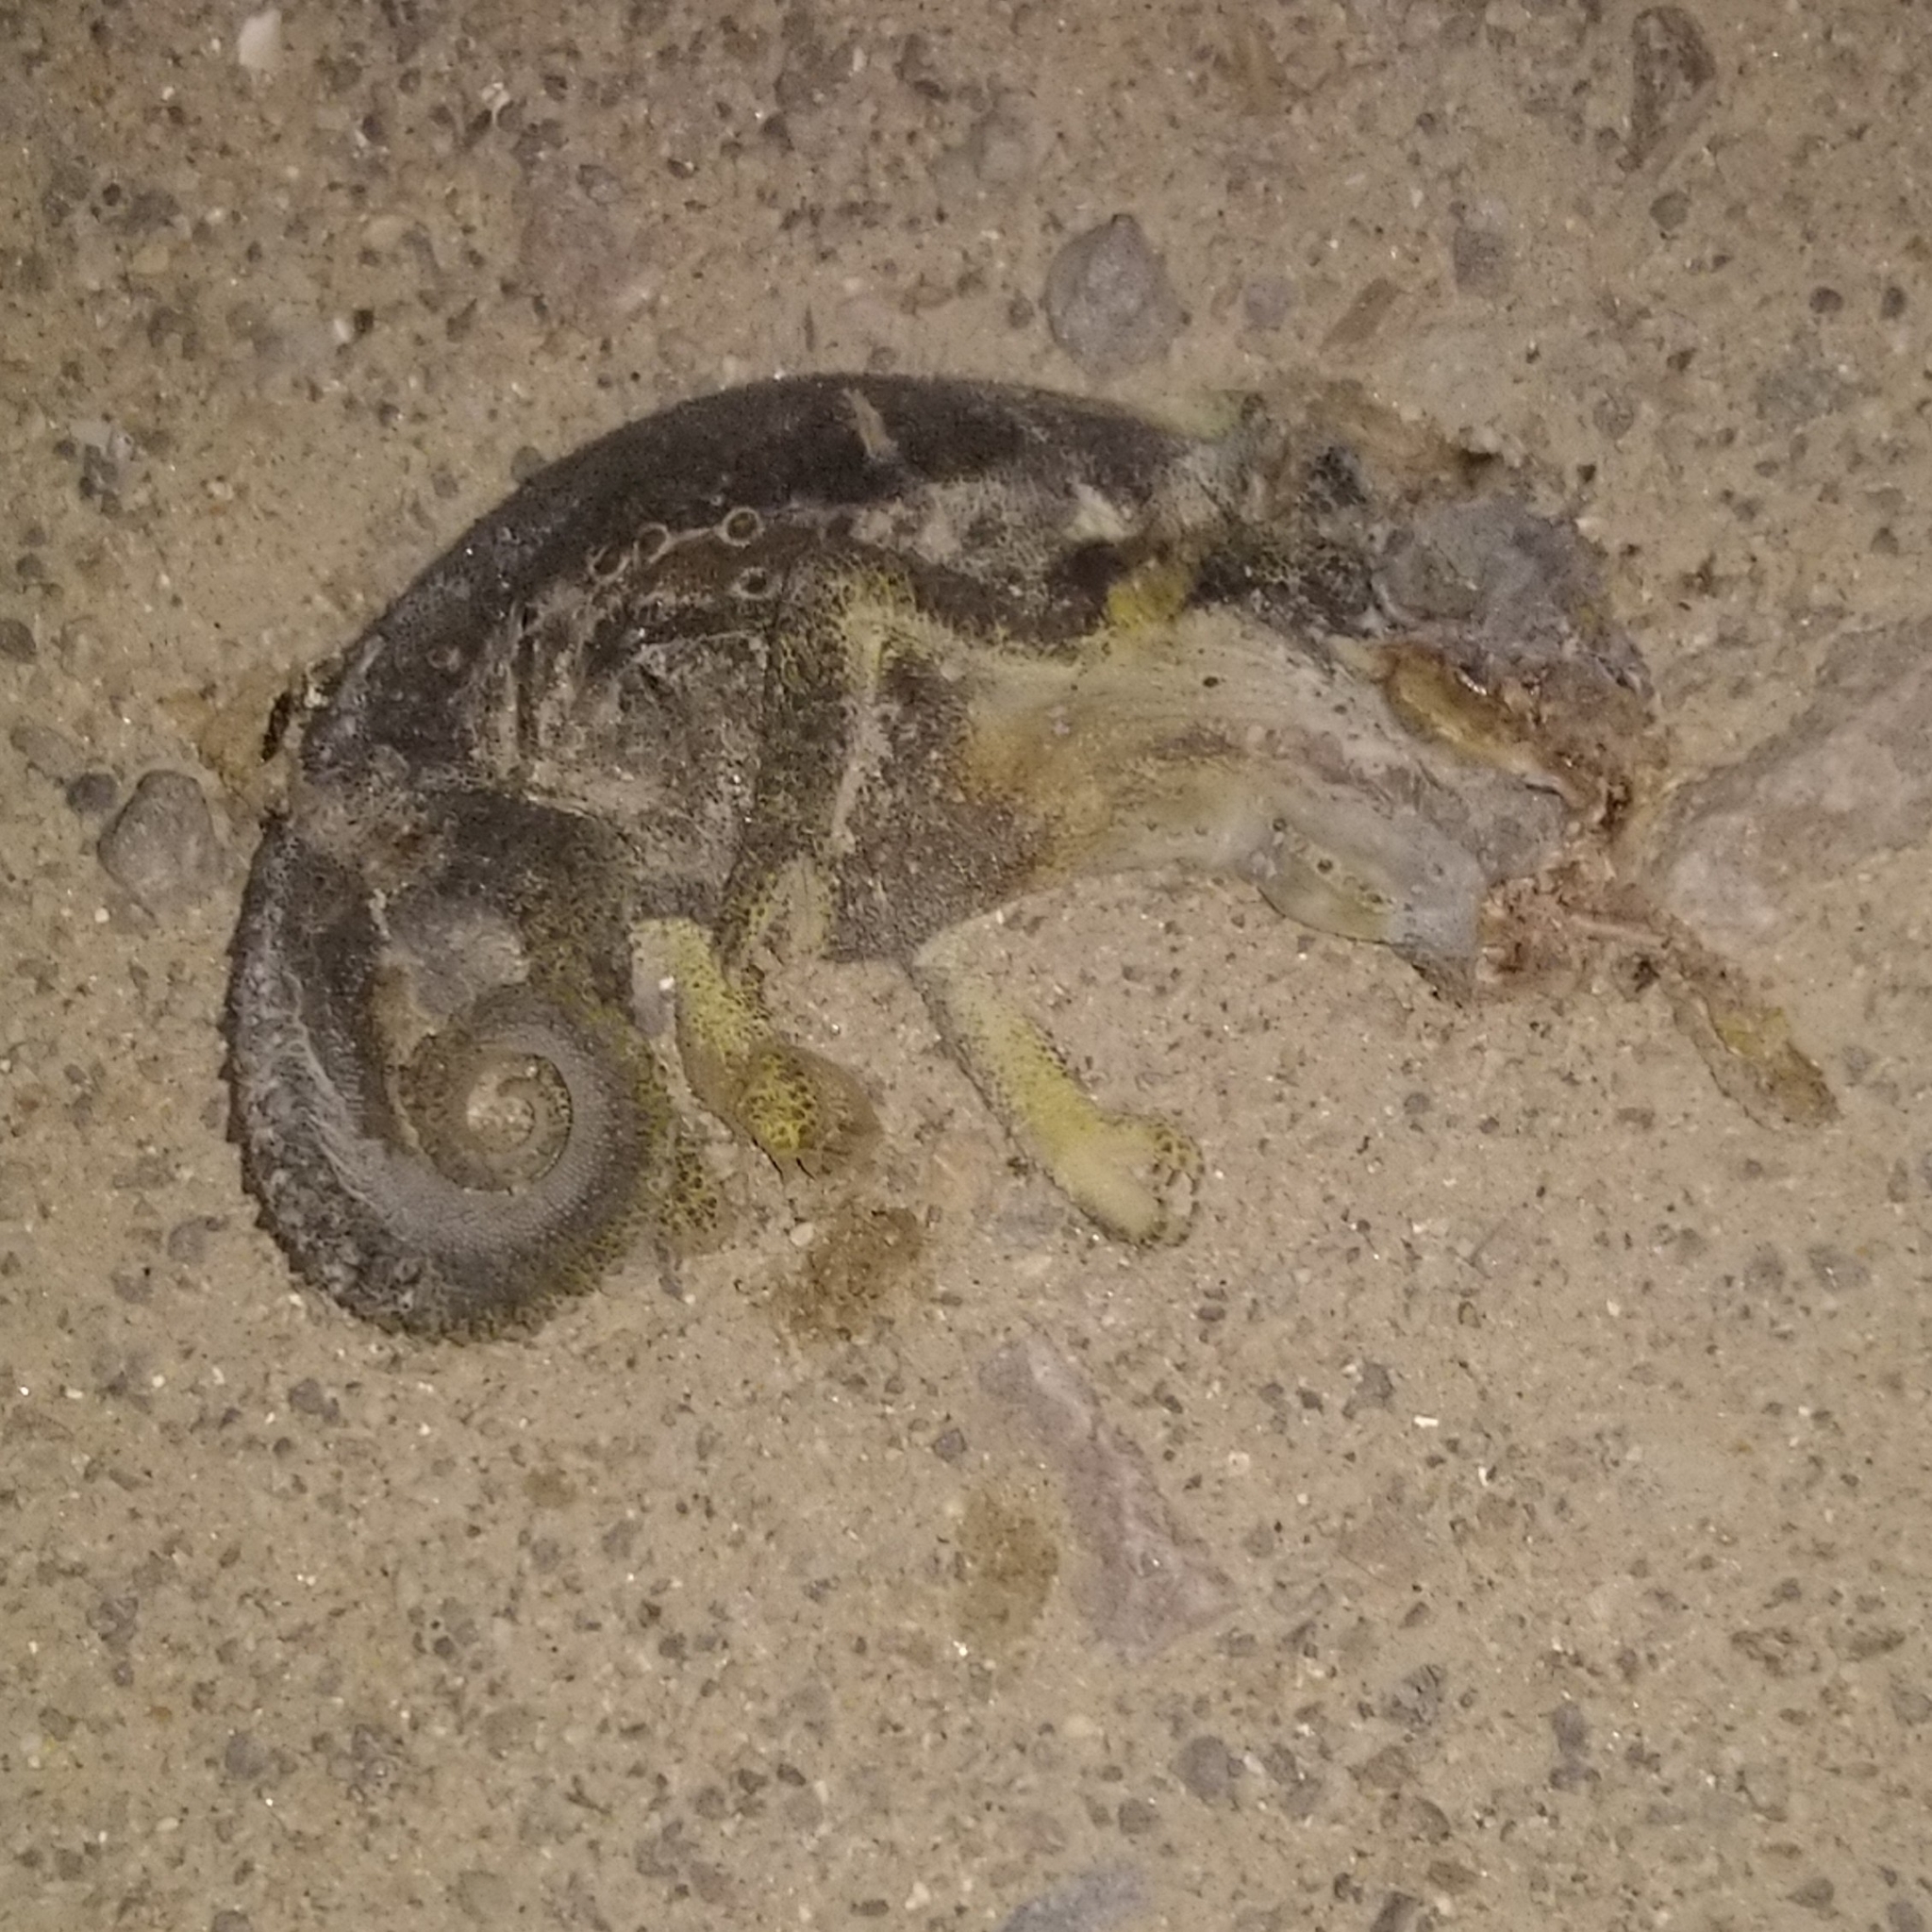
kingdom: Animalia
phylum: Chordata
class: Squamata
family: Chamaeleonidae
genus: Bradypodion
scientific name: Bradypodion ventrale
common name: Eastern cape dwarf chameleon
